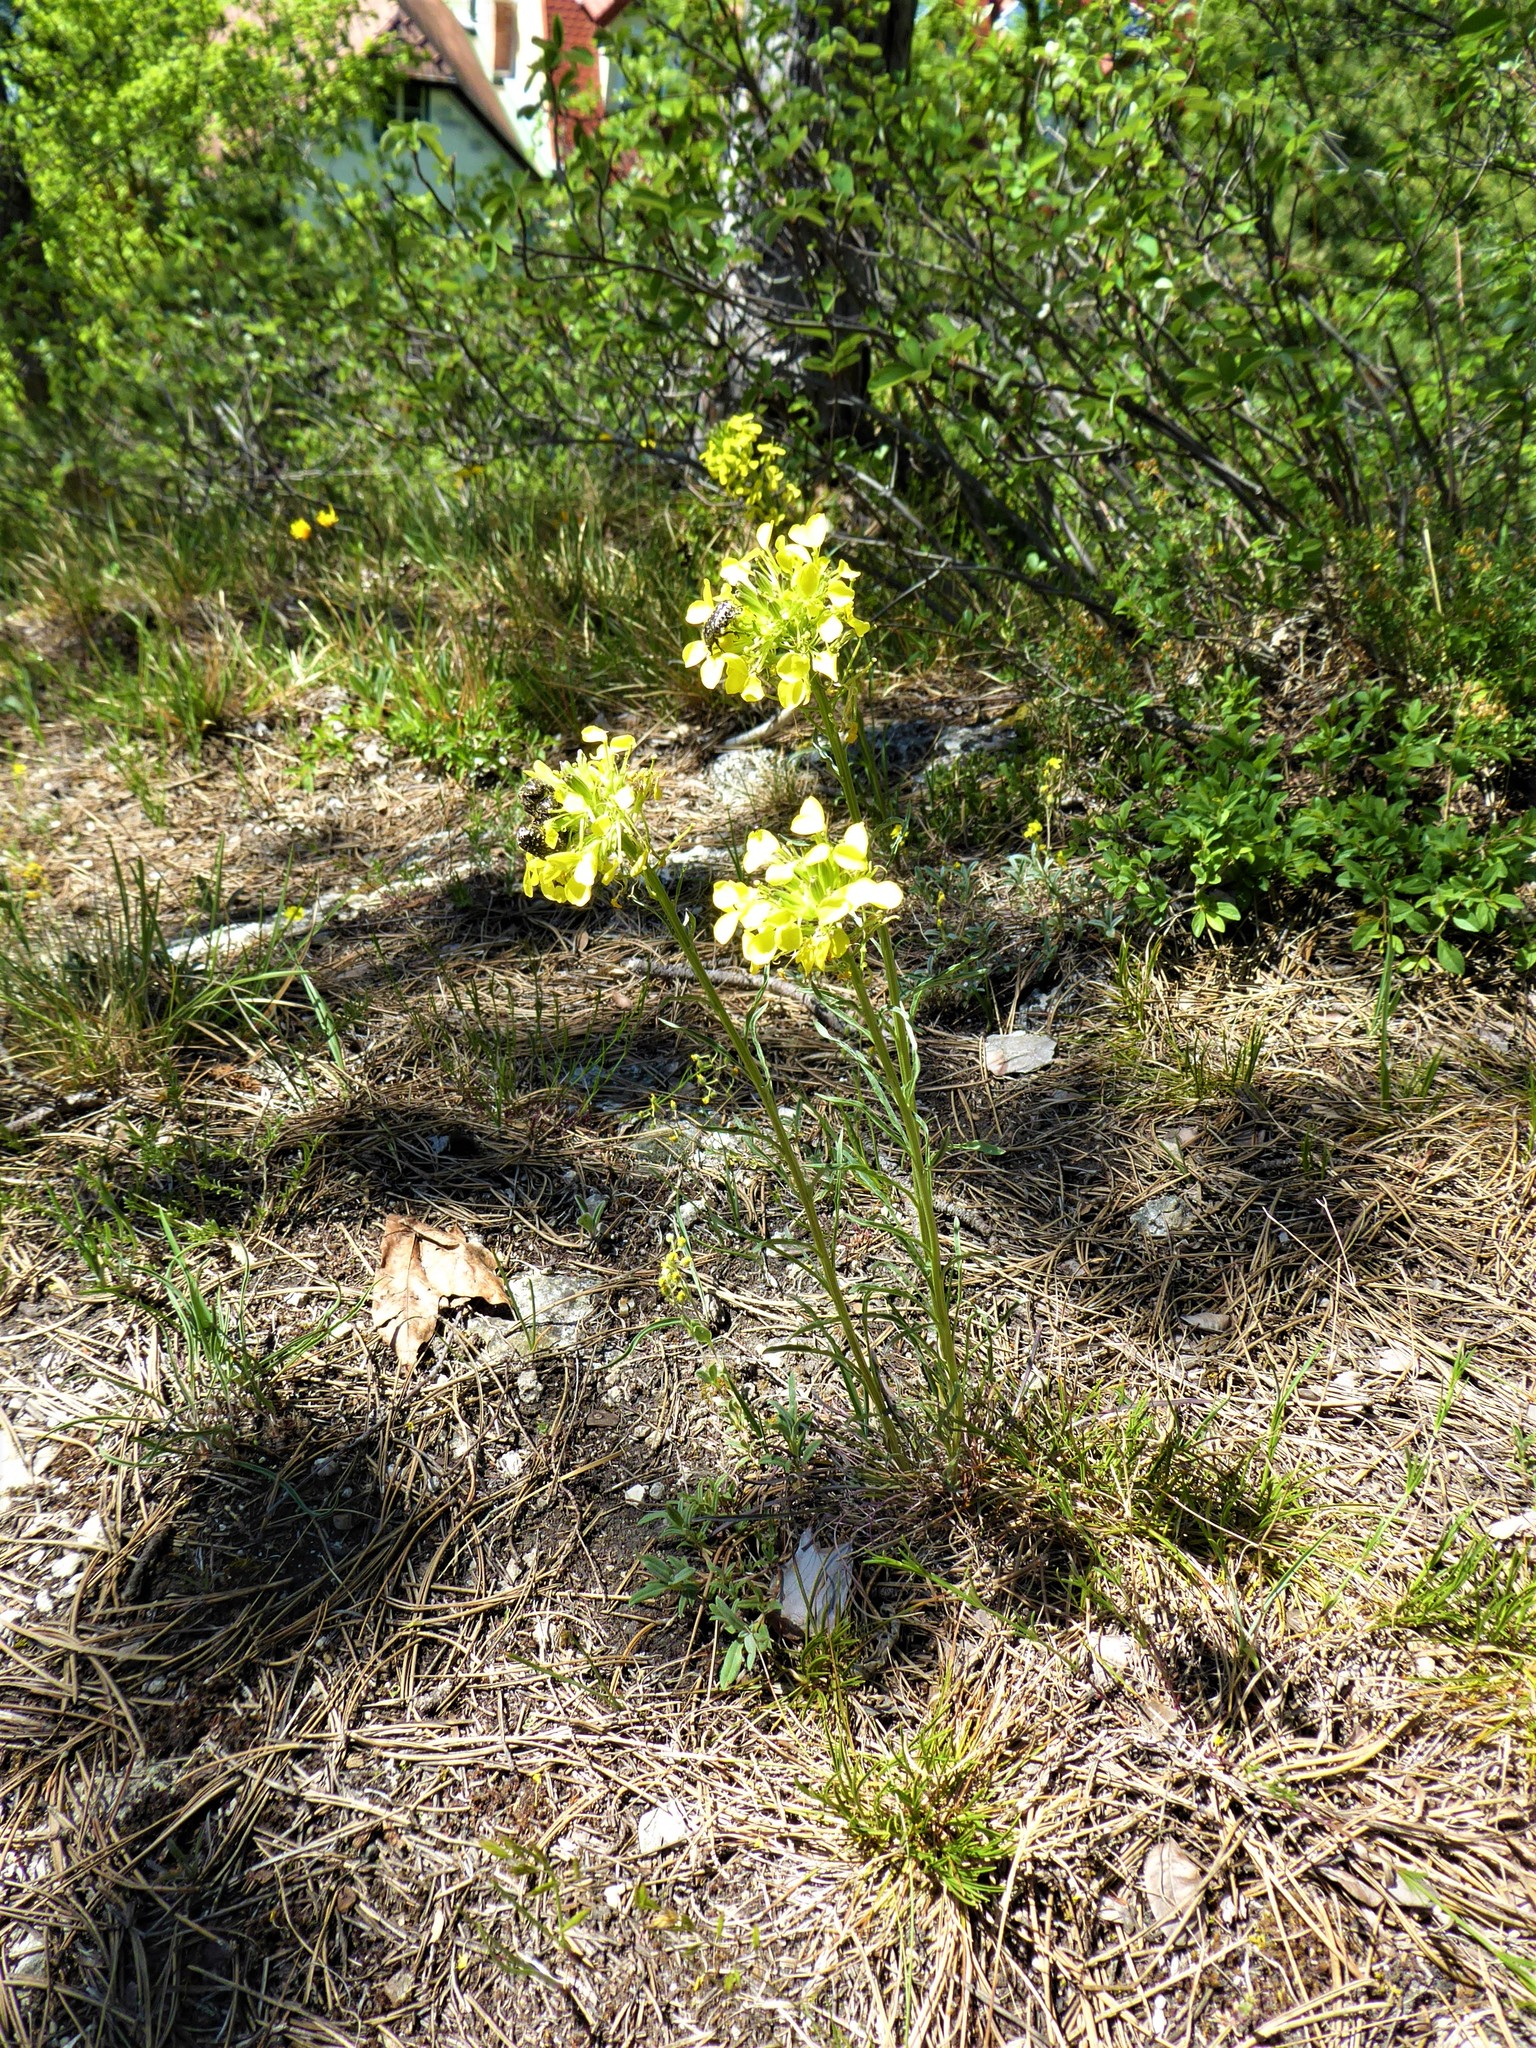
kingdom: Plantae
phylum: Tracheophyta
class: Magnoliopsida
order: Brassicales
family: Brassicaceae
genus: Erysimum
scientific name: Erysimum sylvestre
